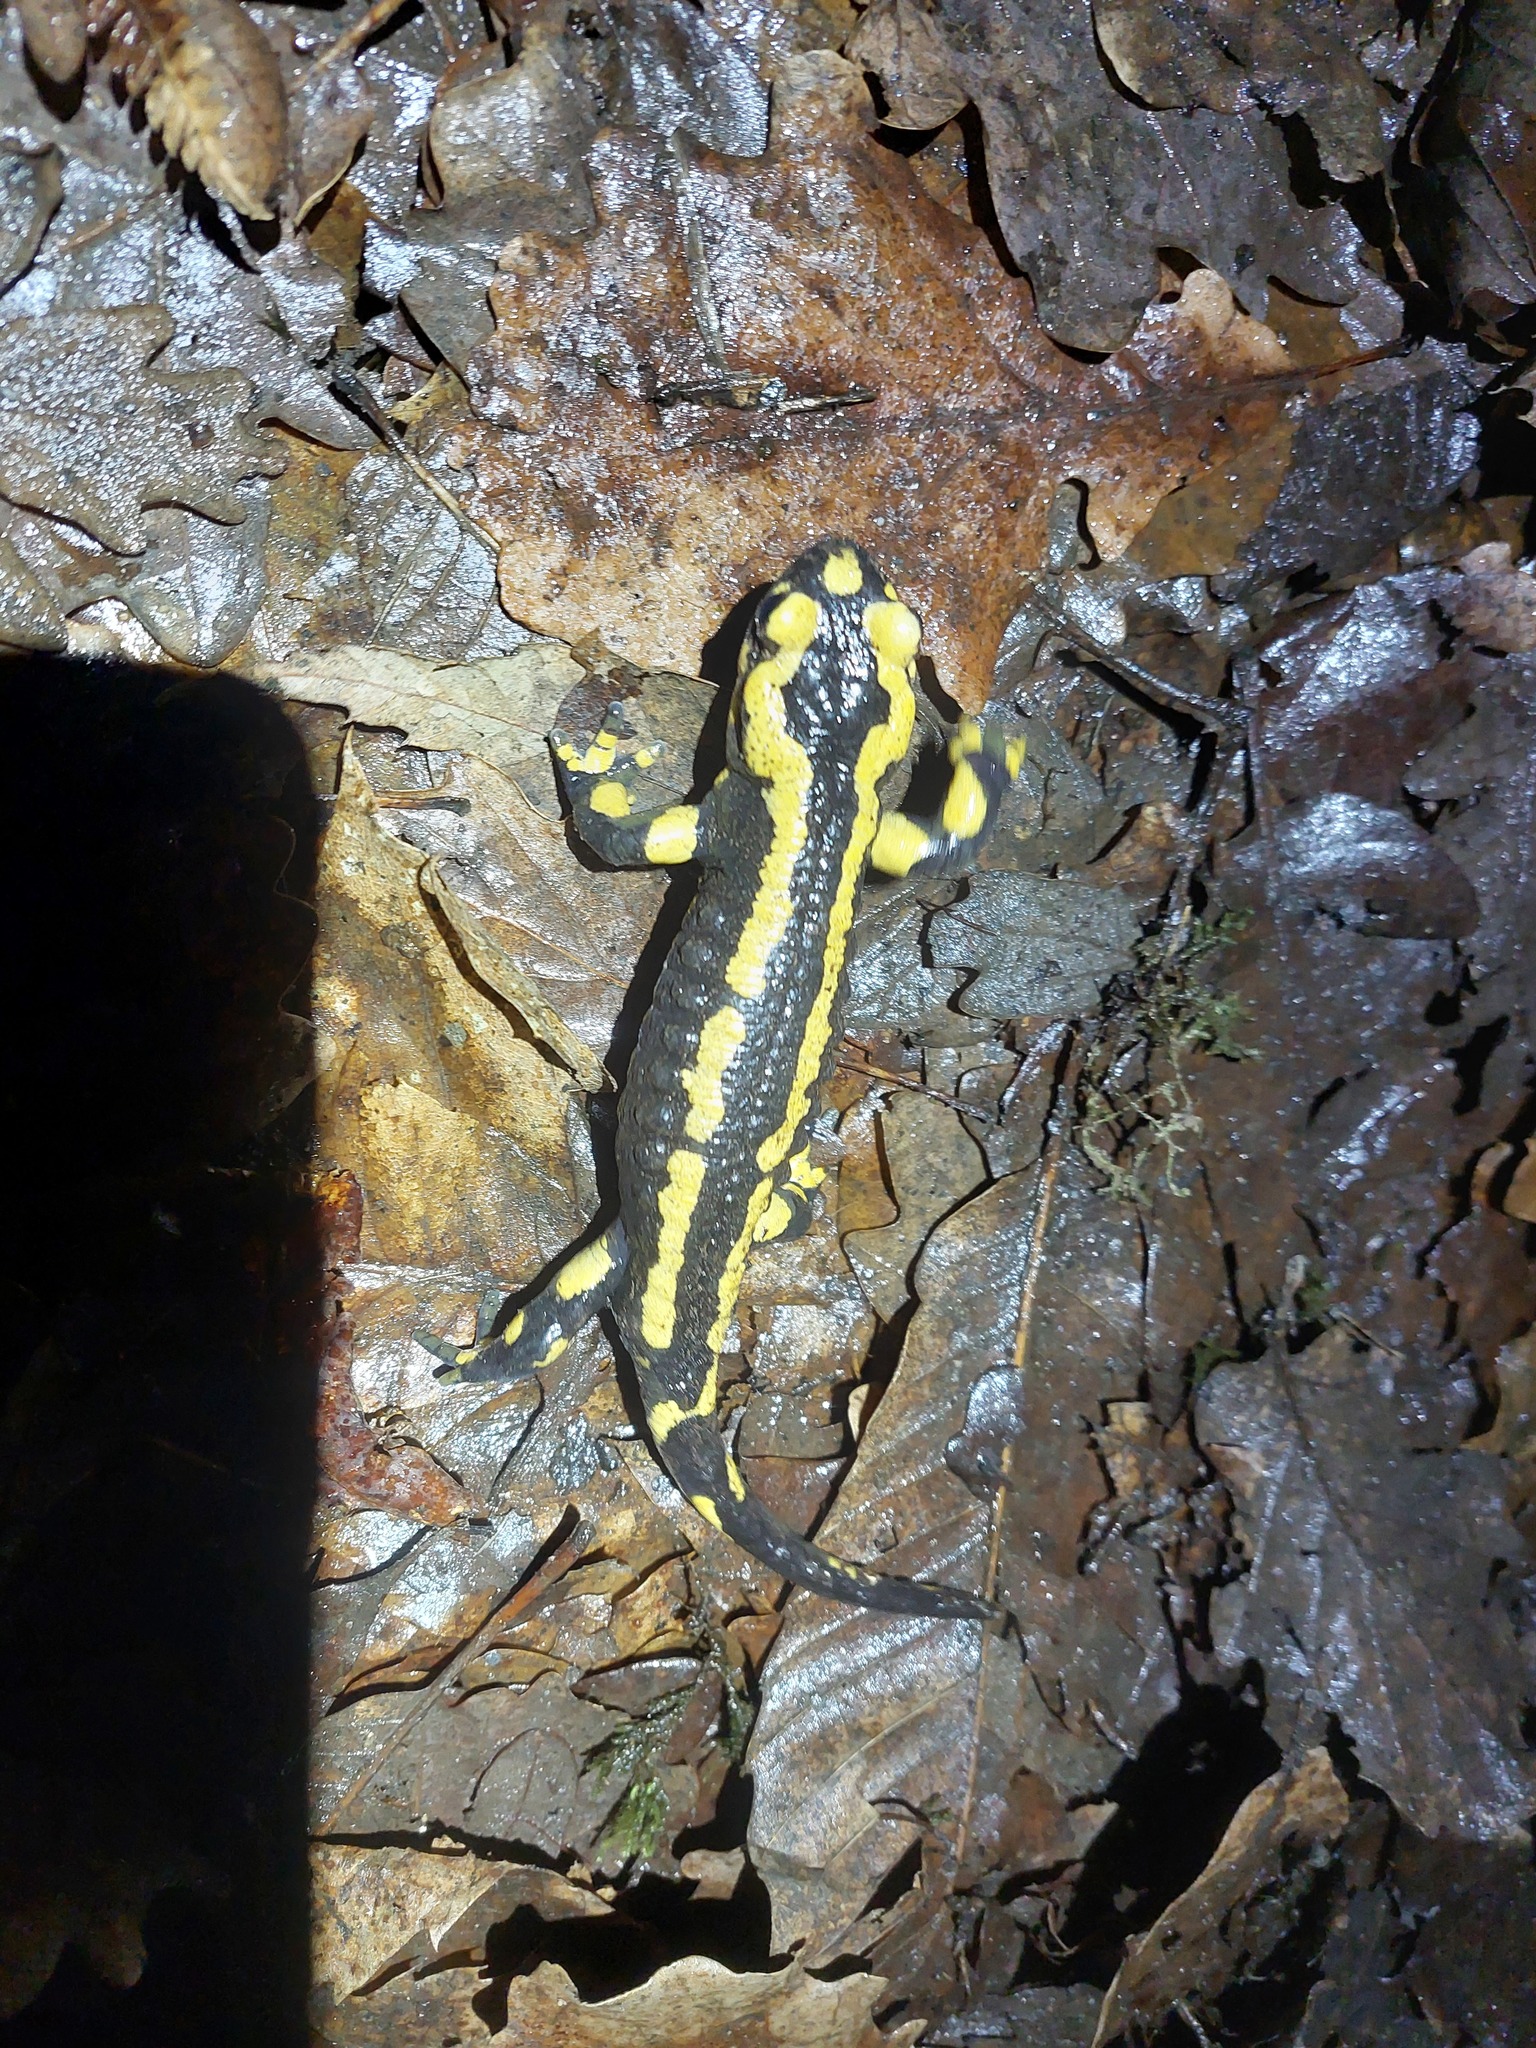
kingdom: Animalia
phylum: Chordata
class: Amphibia
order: Caudata
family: Salamandridae
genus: Salamandra
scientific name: Salamandra salamandra
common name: Fire salamander
